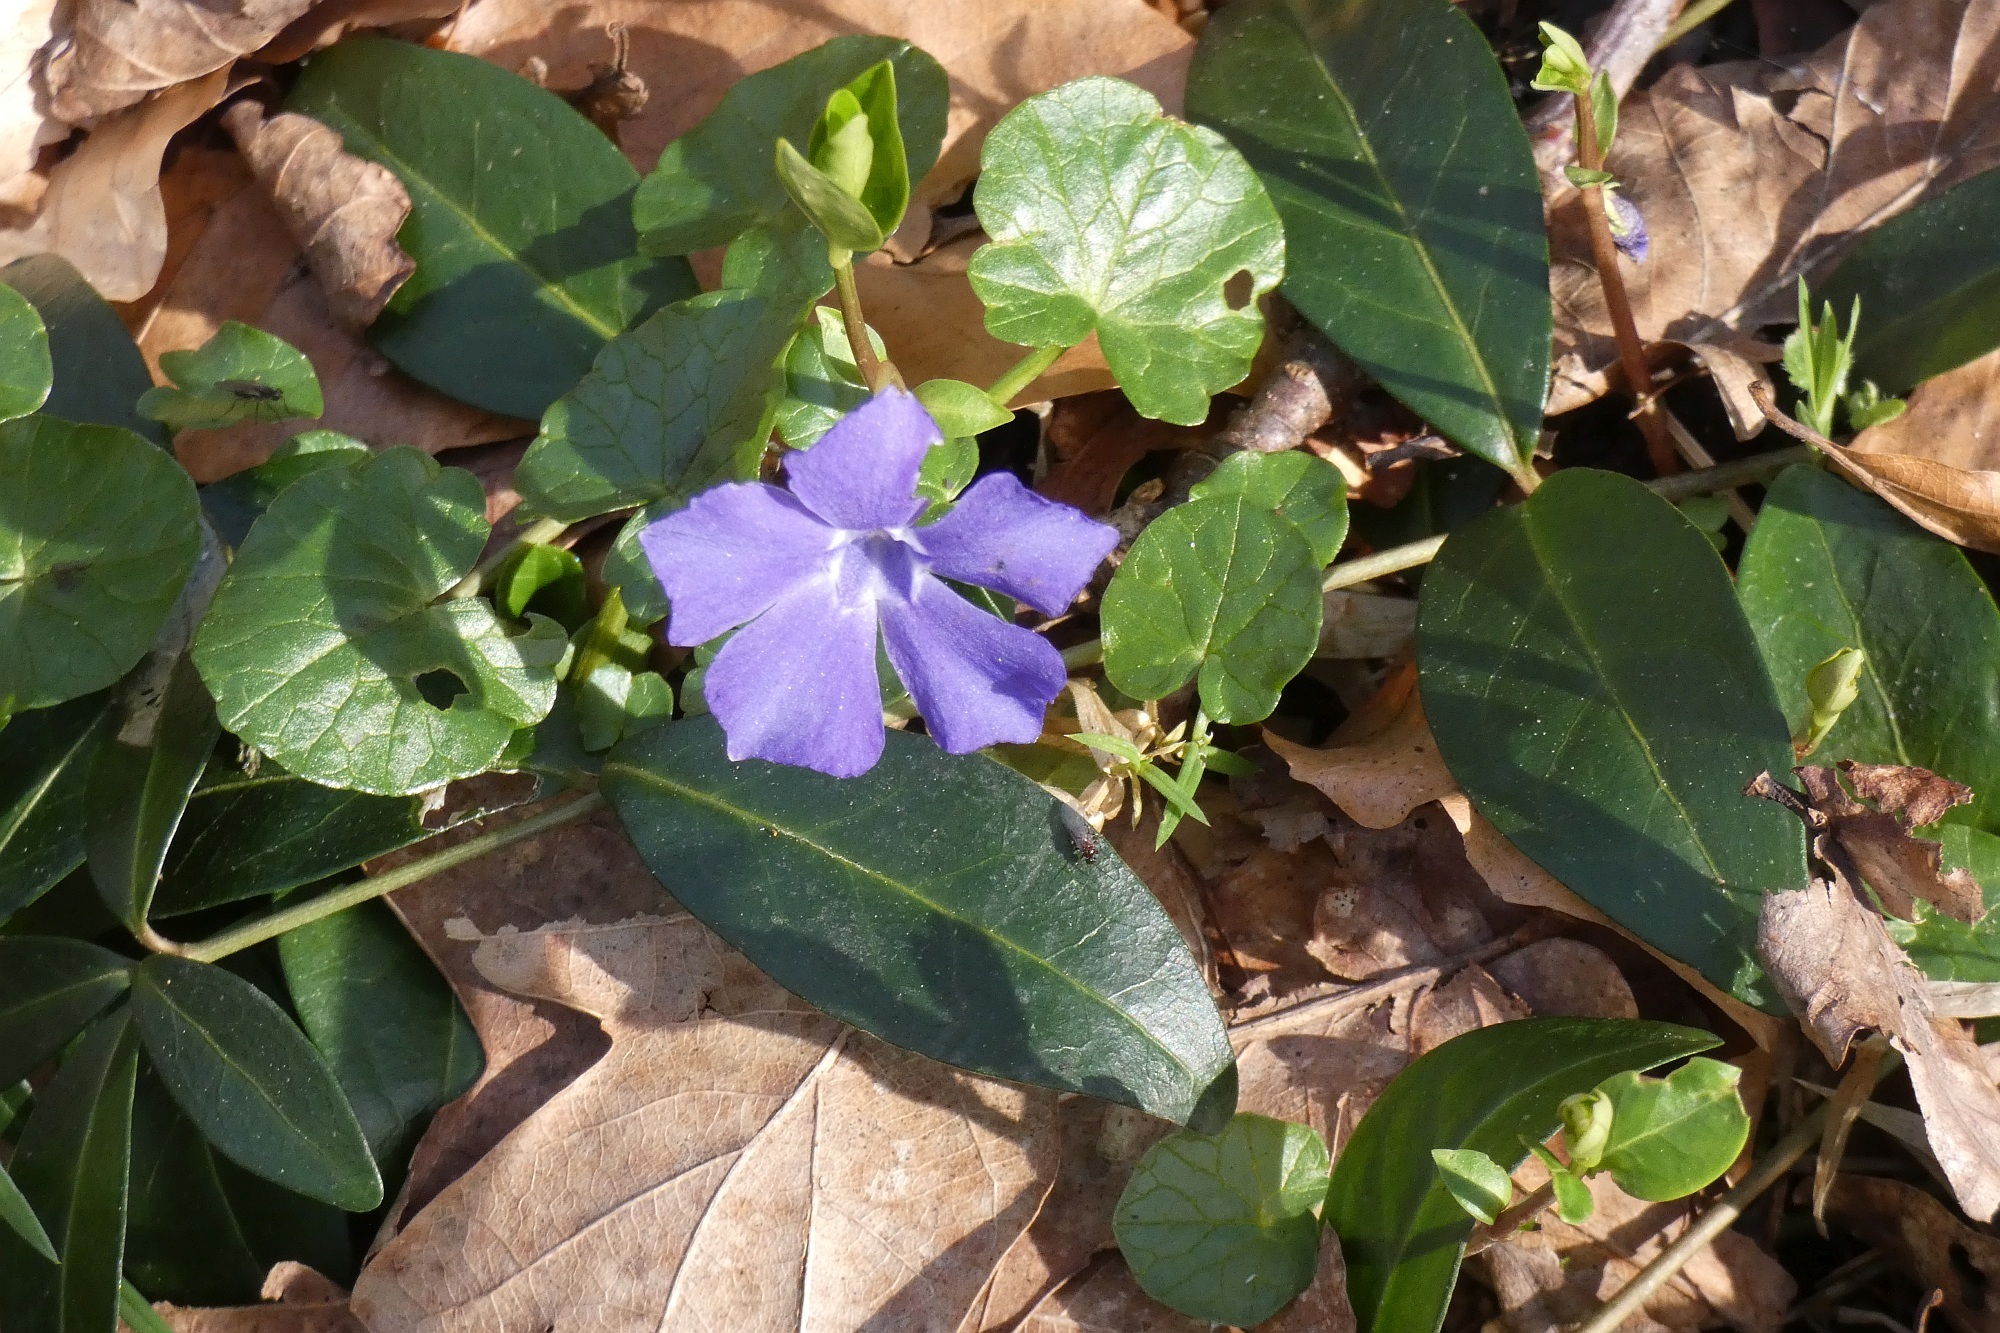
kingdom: Plantae
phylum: Tracheophyta
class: Magnoliopsida
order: Gentianales
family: Apocynaceae
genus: Vinca
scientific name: Vinca minor
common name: Lesser periwinkle
